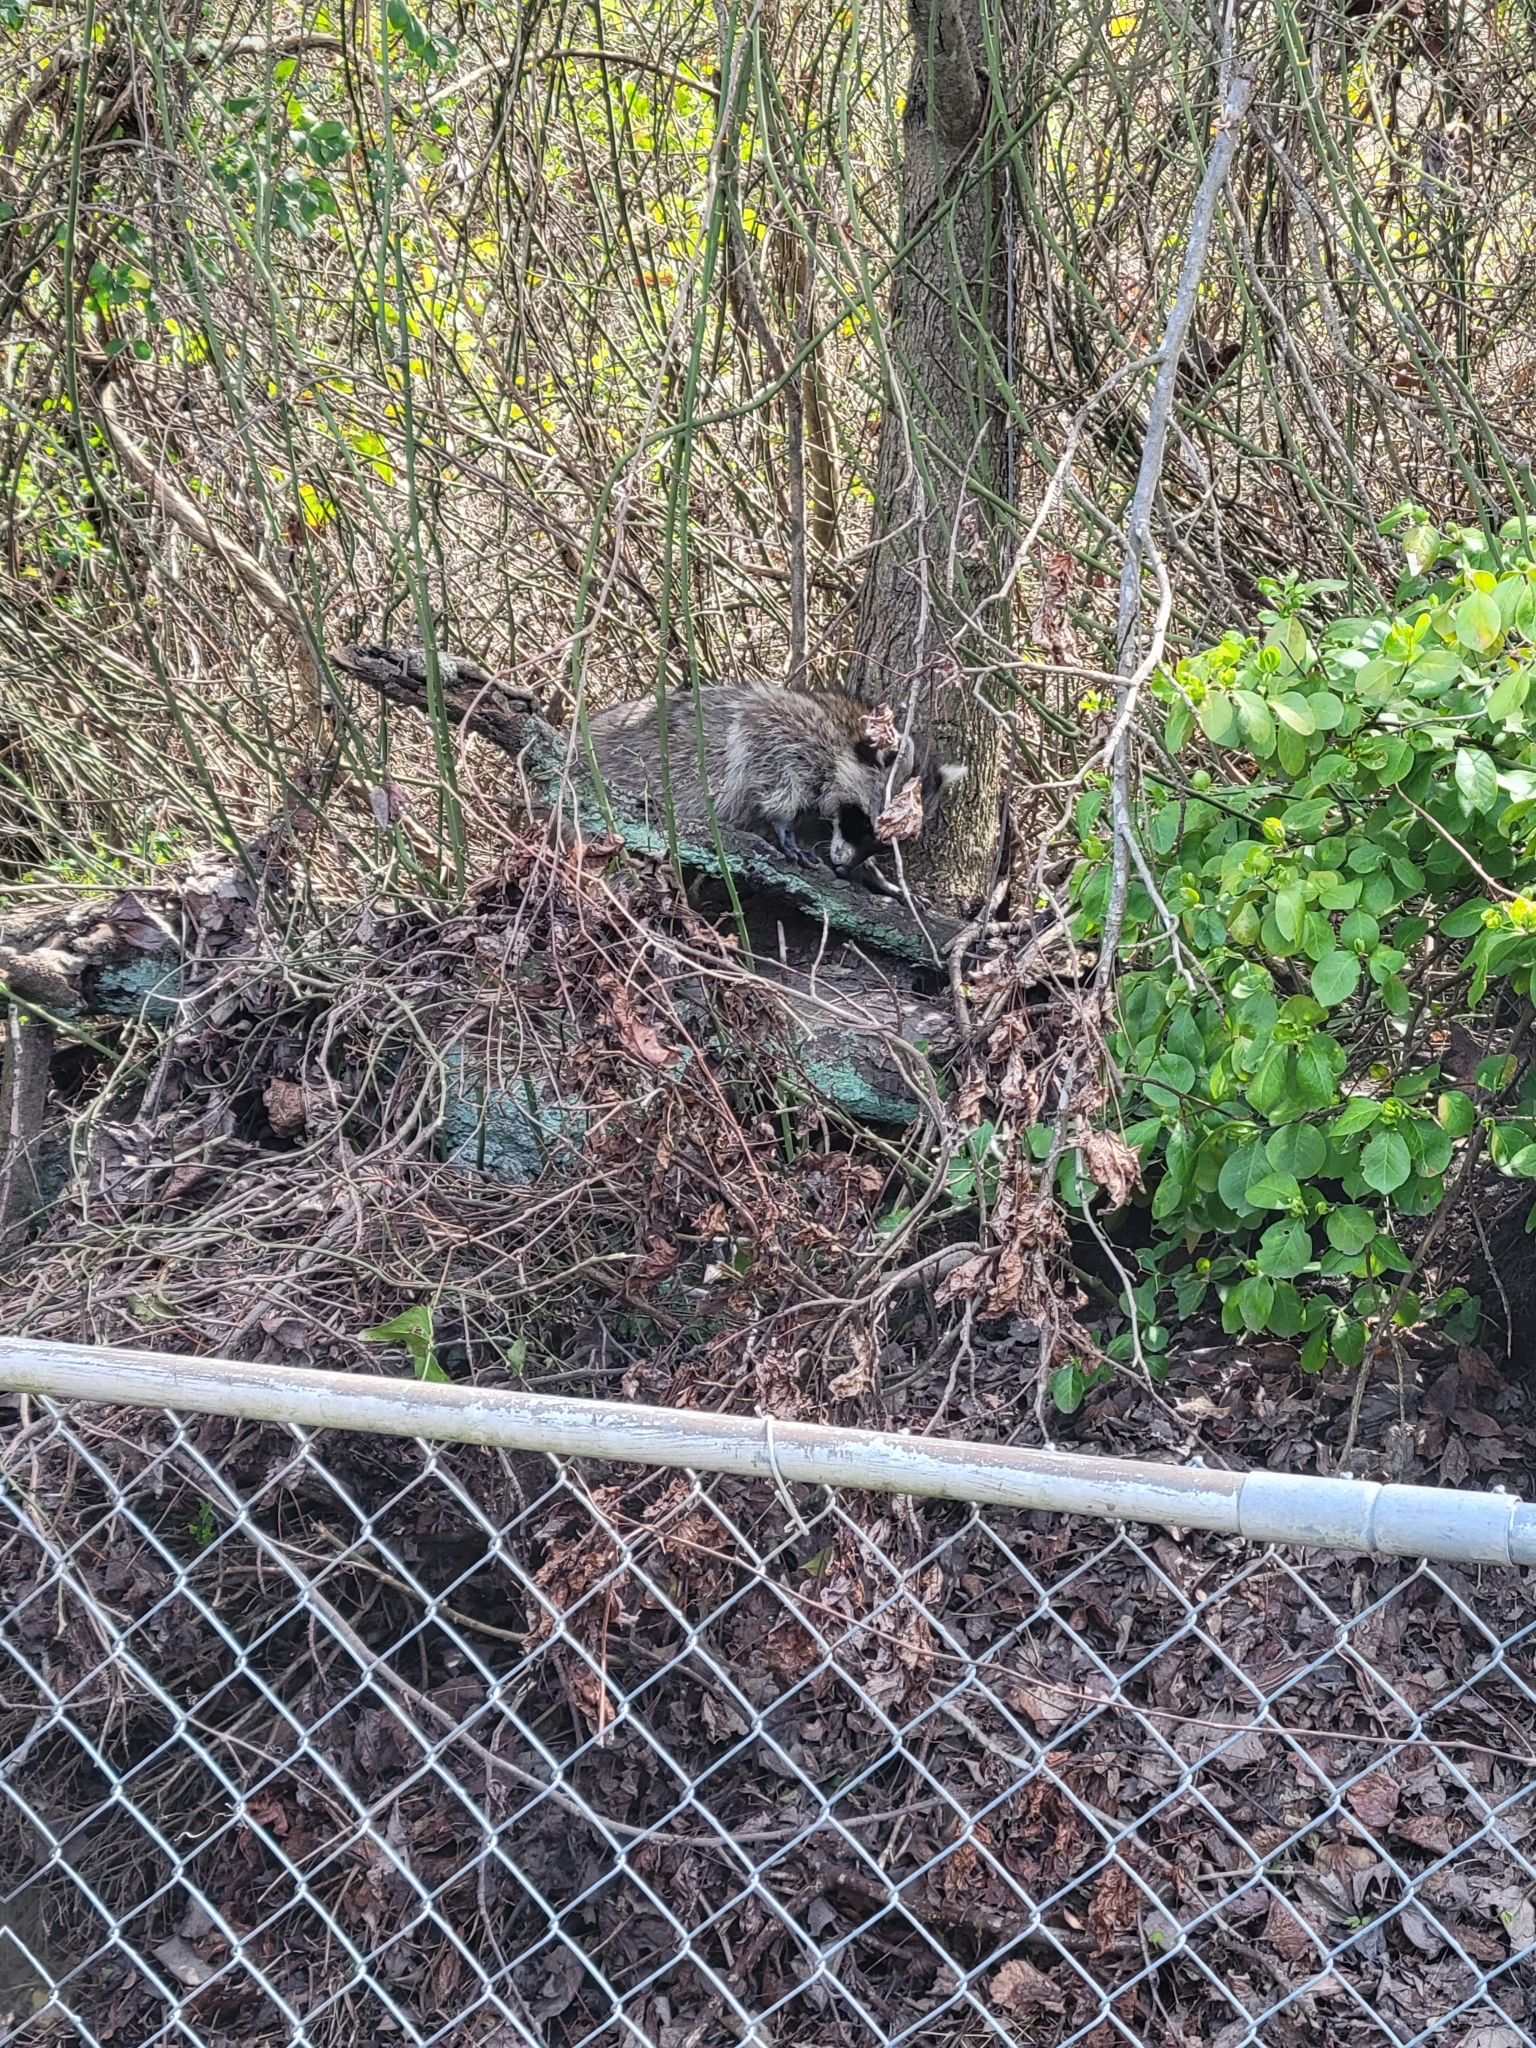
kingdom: Animalia
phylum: Chordata
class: Mammalia
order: Carnivora
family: Procyonidae
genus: Procyon
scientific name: Procyon lotor
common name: Raccoon
